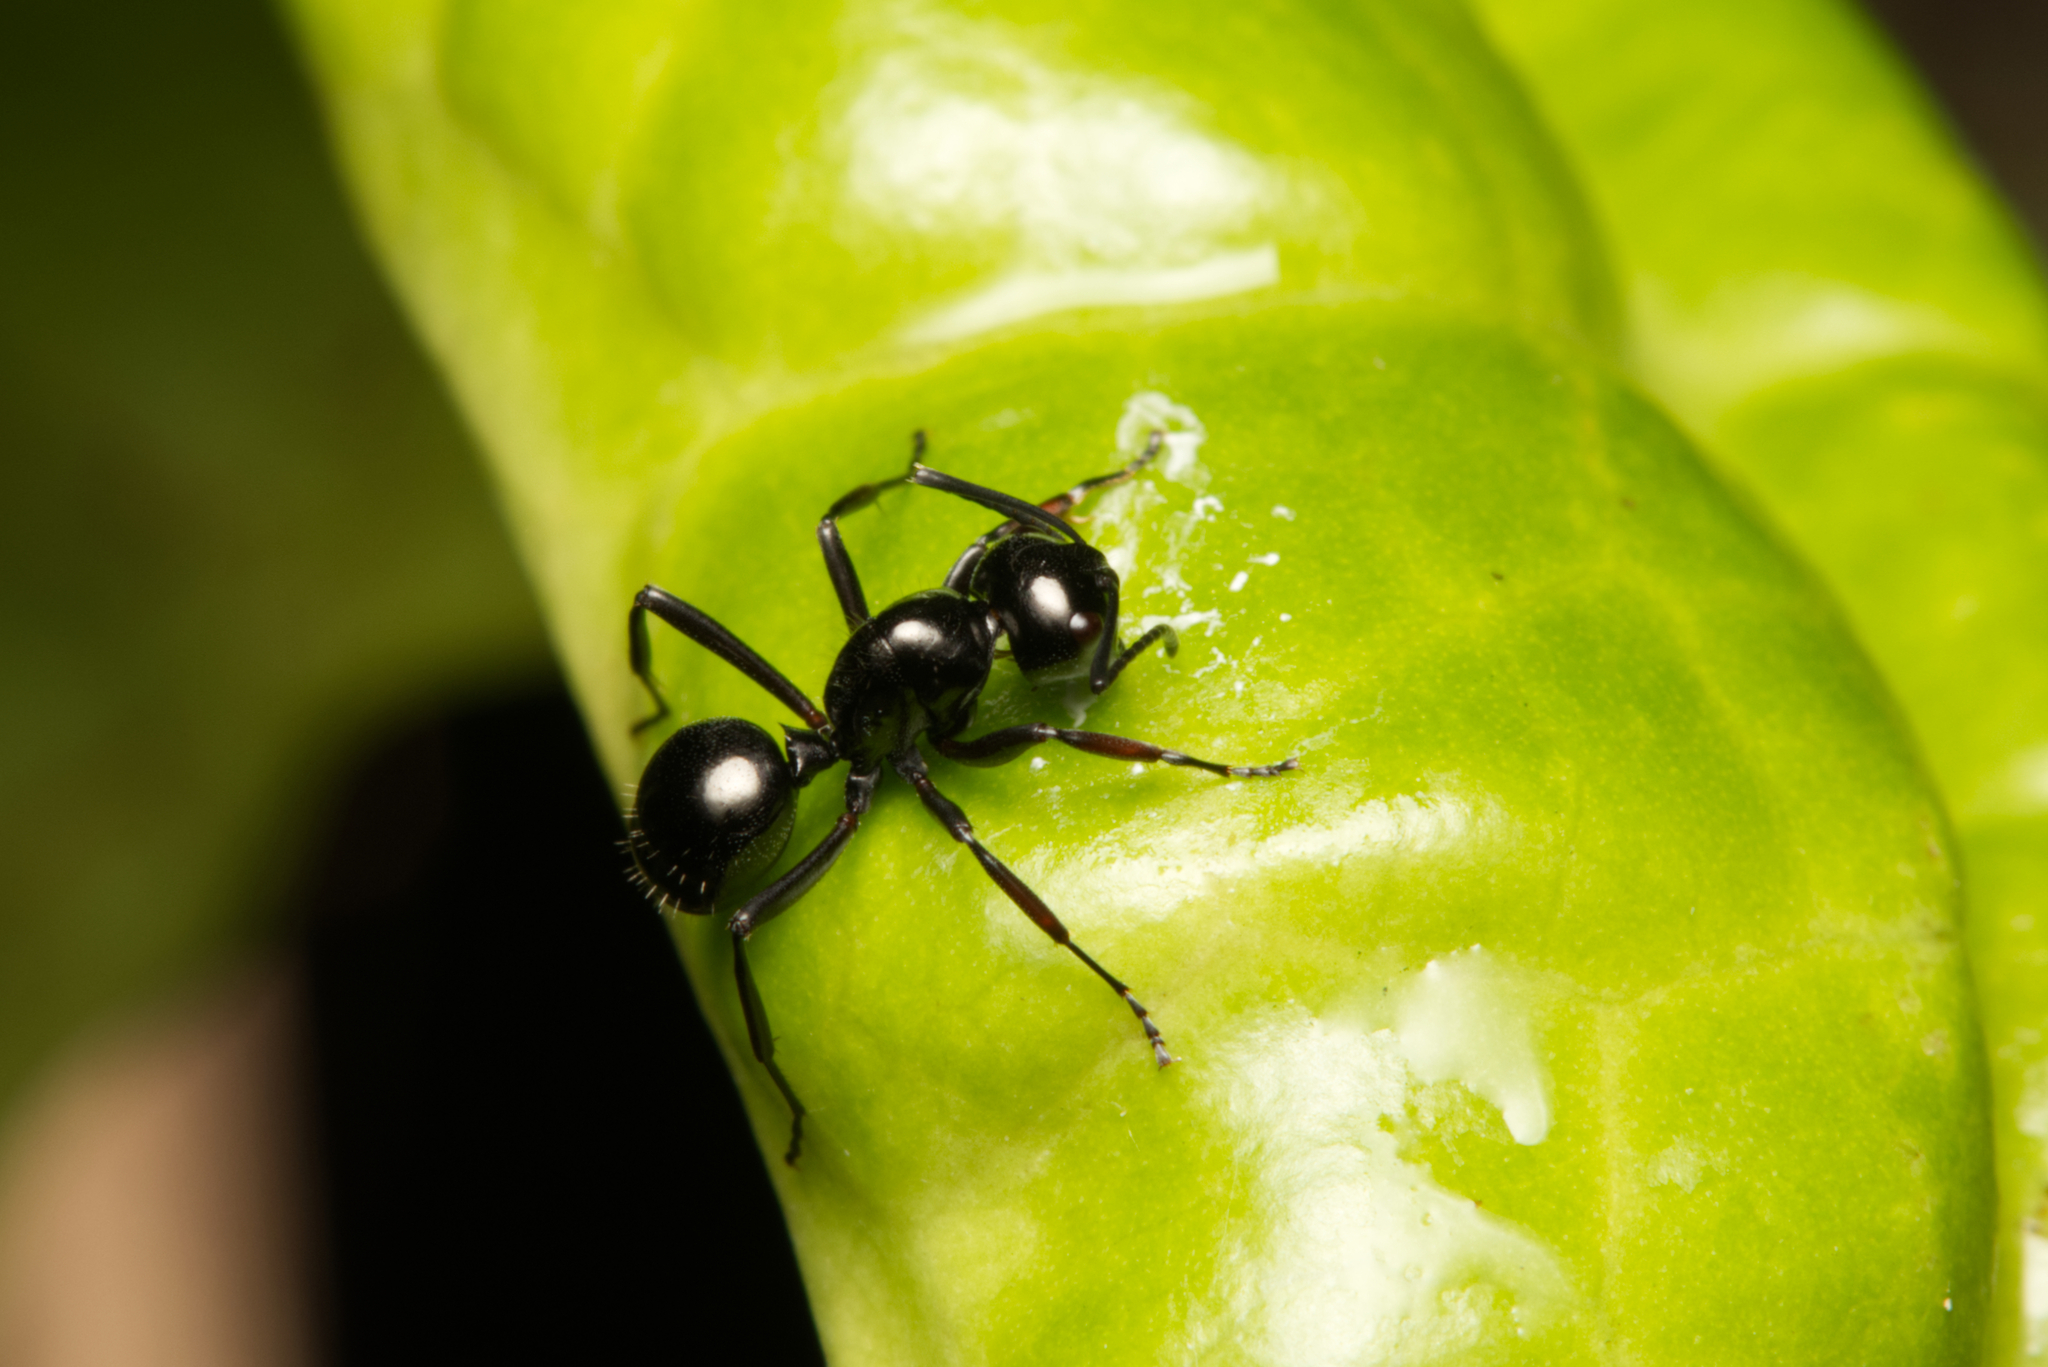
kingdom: Animalia
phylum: Arthropoda
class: Insecta
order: Hymenoptera
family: Formicidae
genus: Polyrhachis
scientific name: Polyrhachis pilosa
